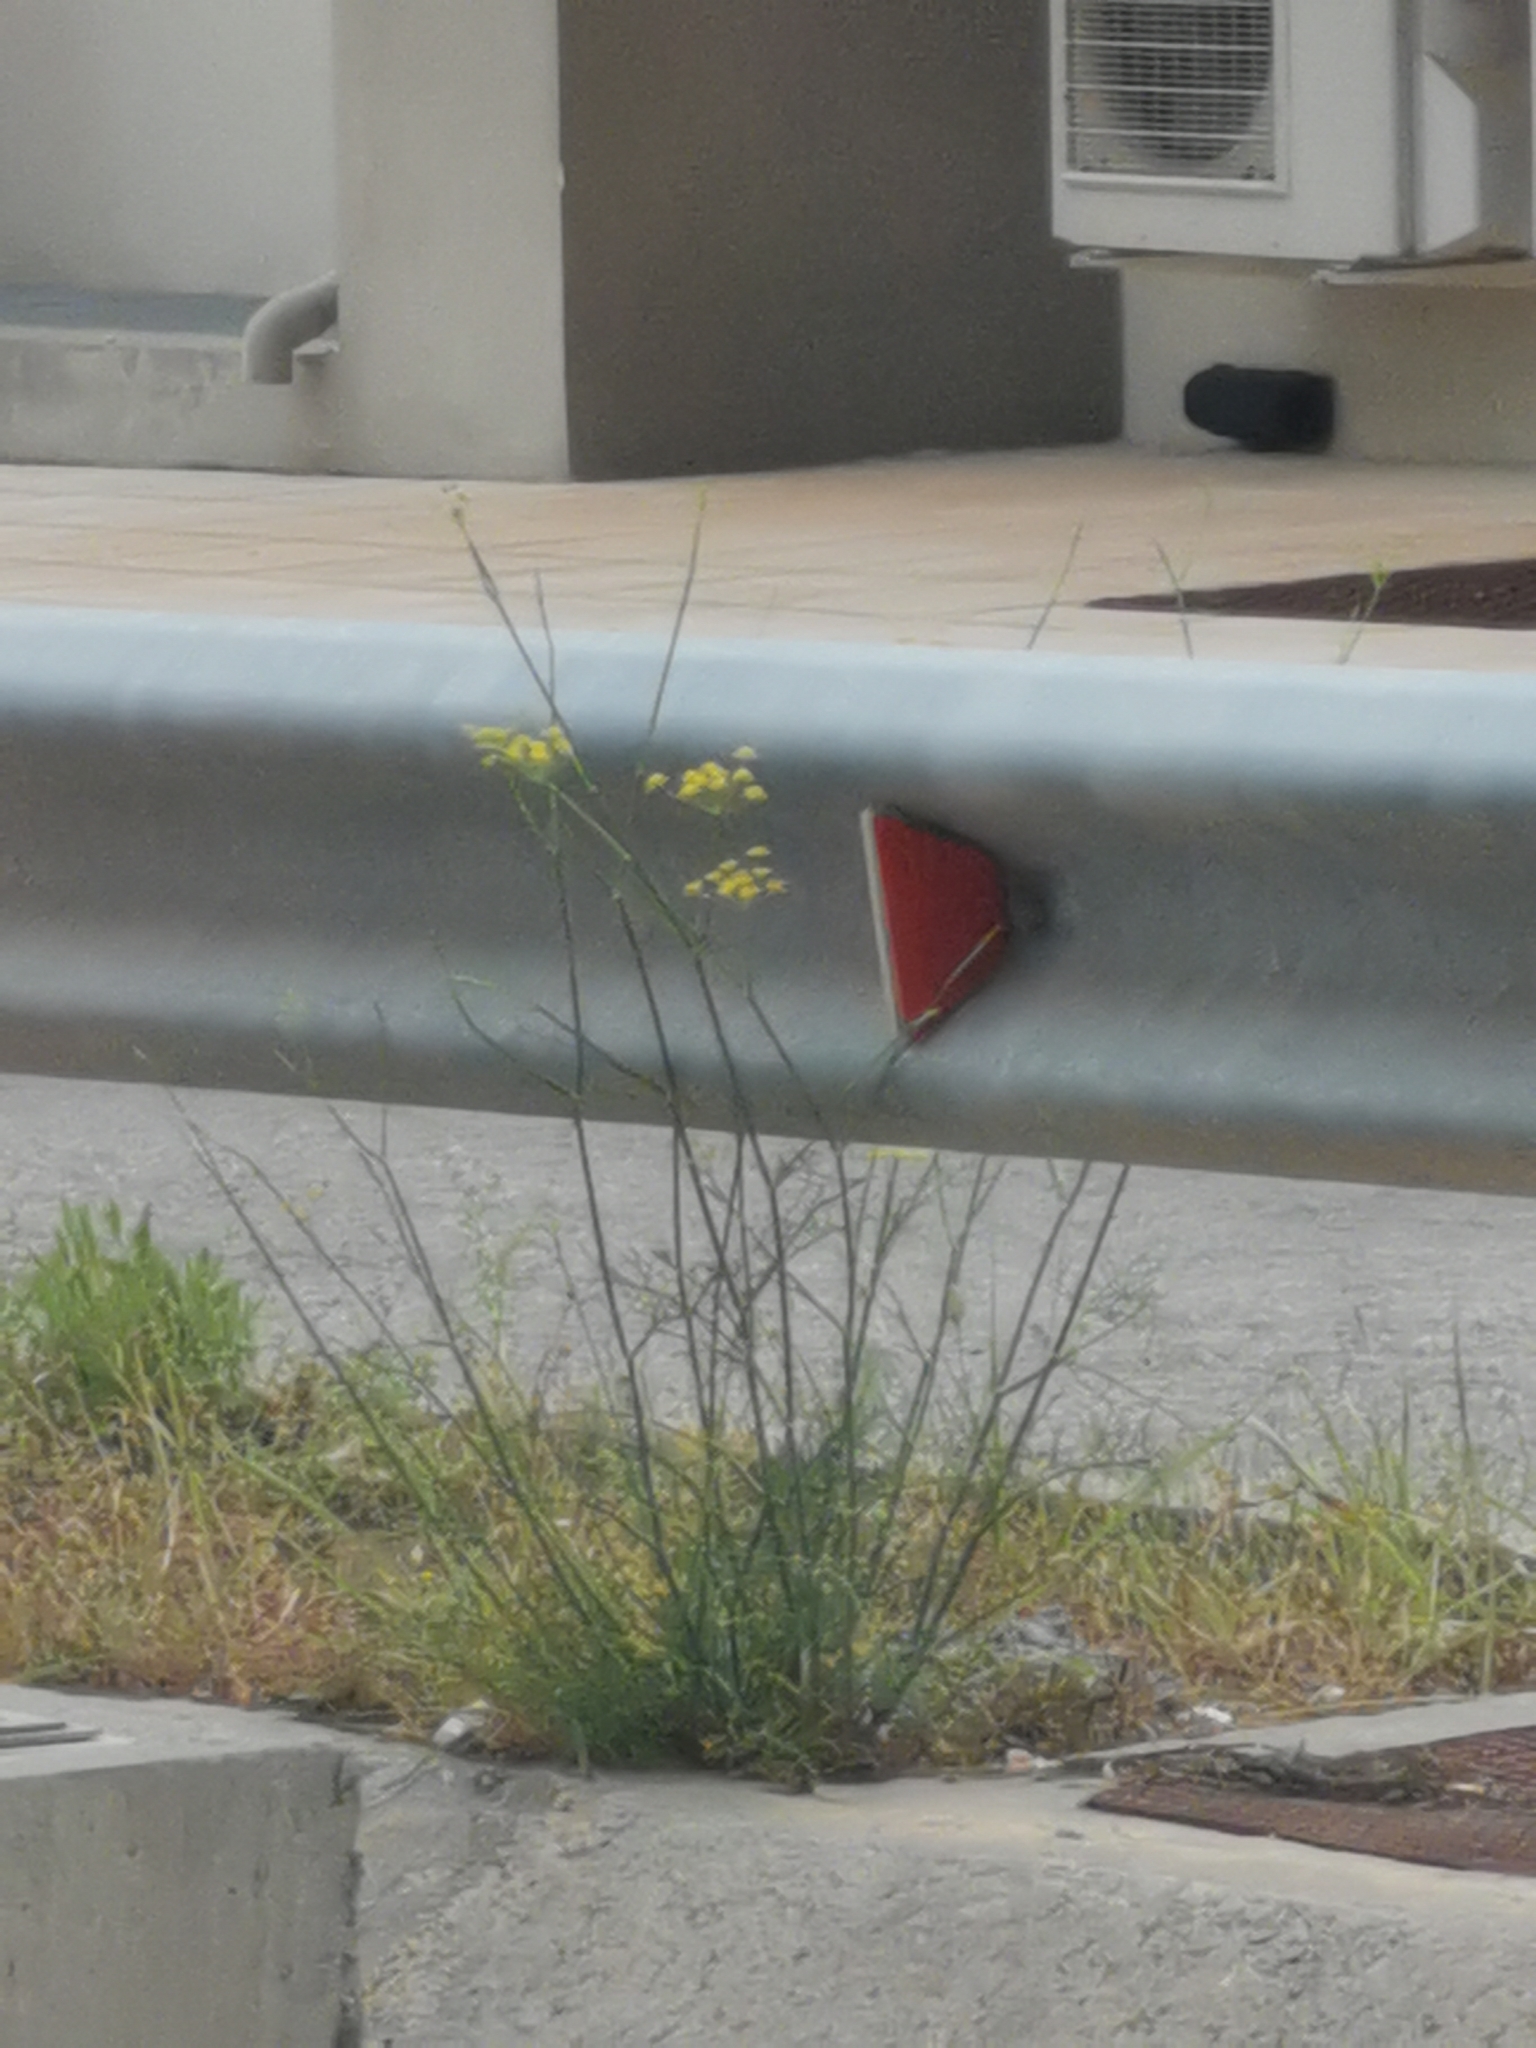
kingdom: Plantae
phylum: Tracheophyta
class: Magnoliopsida
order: Apiales
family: Apiaceae
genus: Foeniculum
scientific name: Foeniculum vulgare
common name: Fennel
